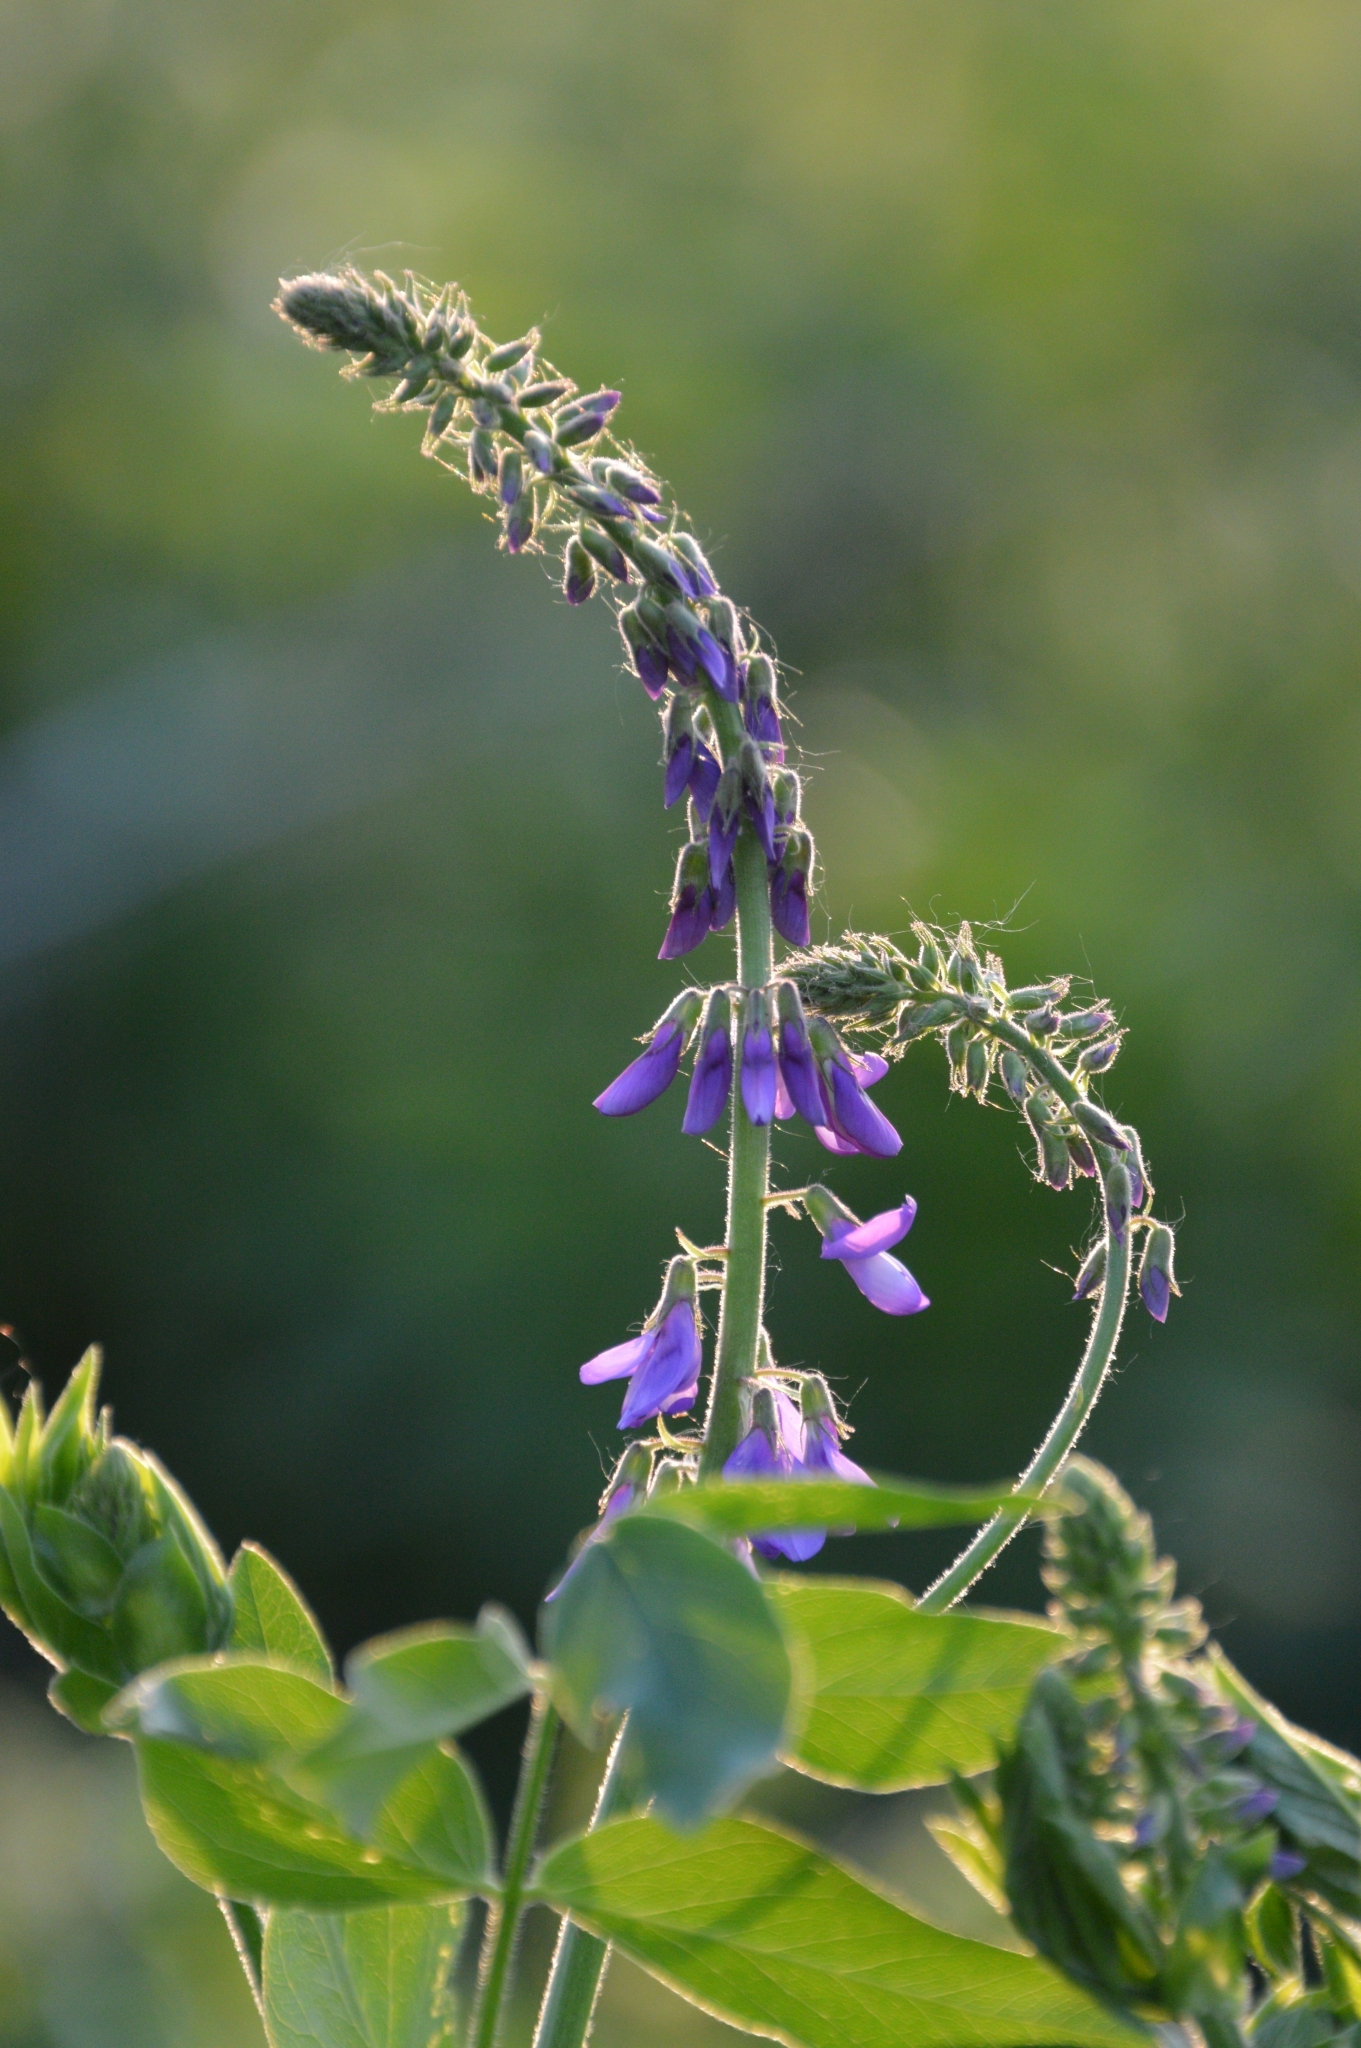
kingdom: Plantae
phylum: Tracheophyta
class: Magnoliopsida
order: Fabales
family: Fabaceae
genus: Galega
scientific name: Galega orientalis
